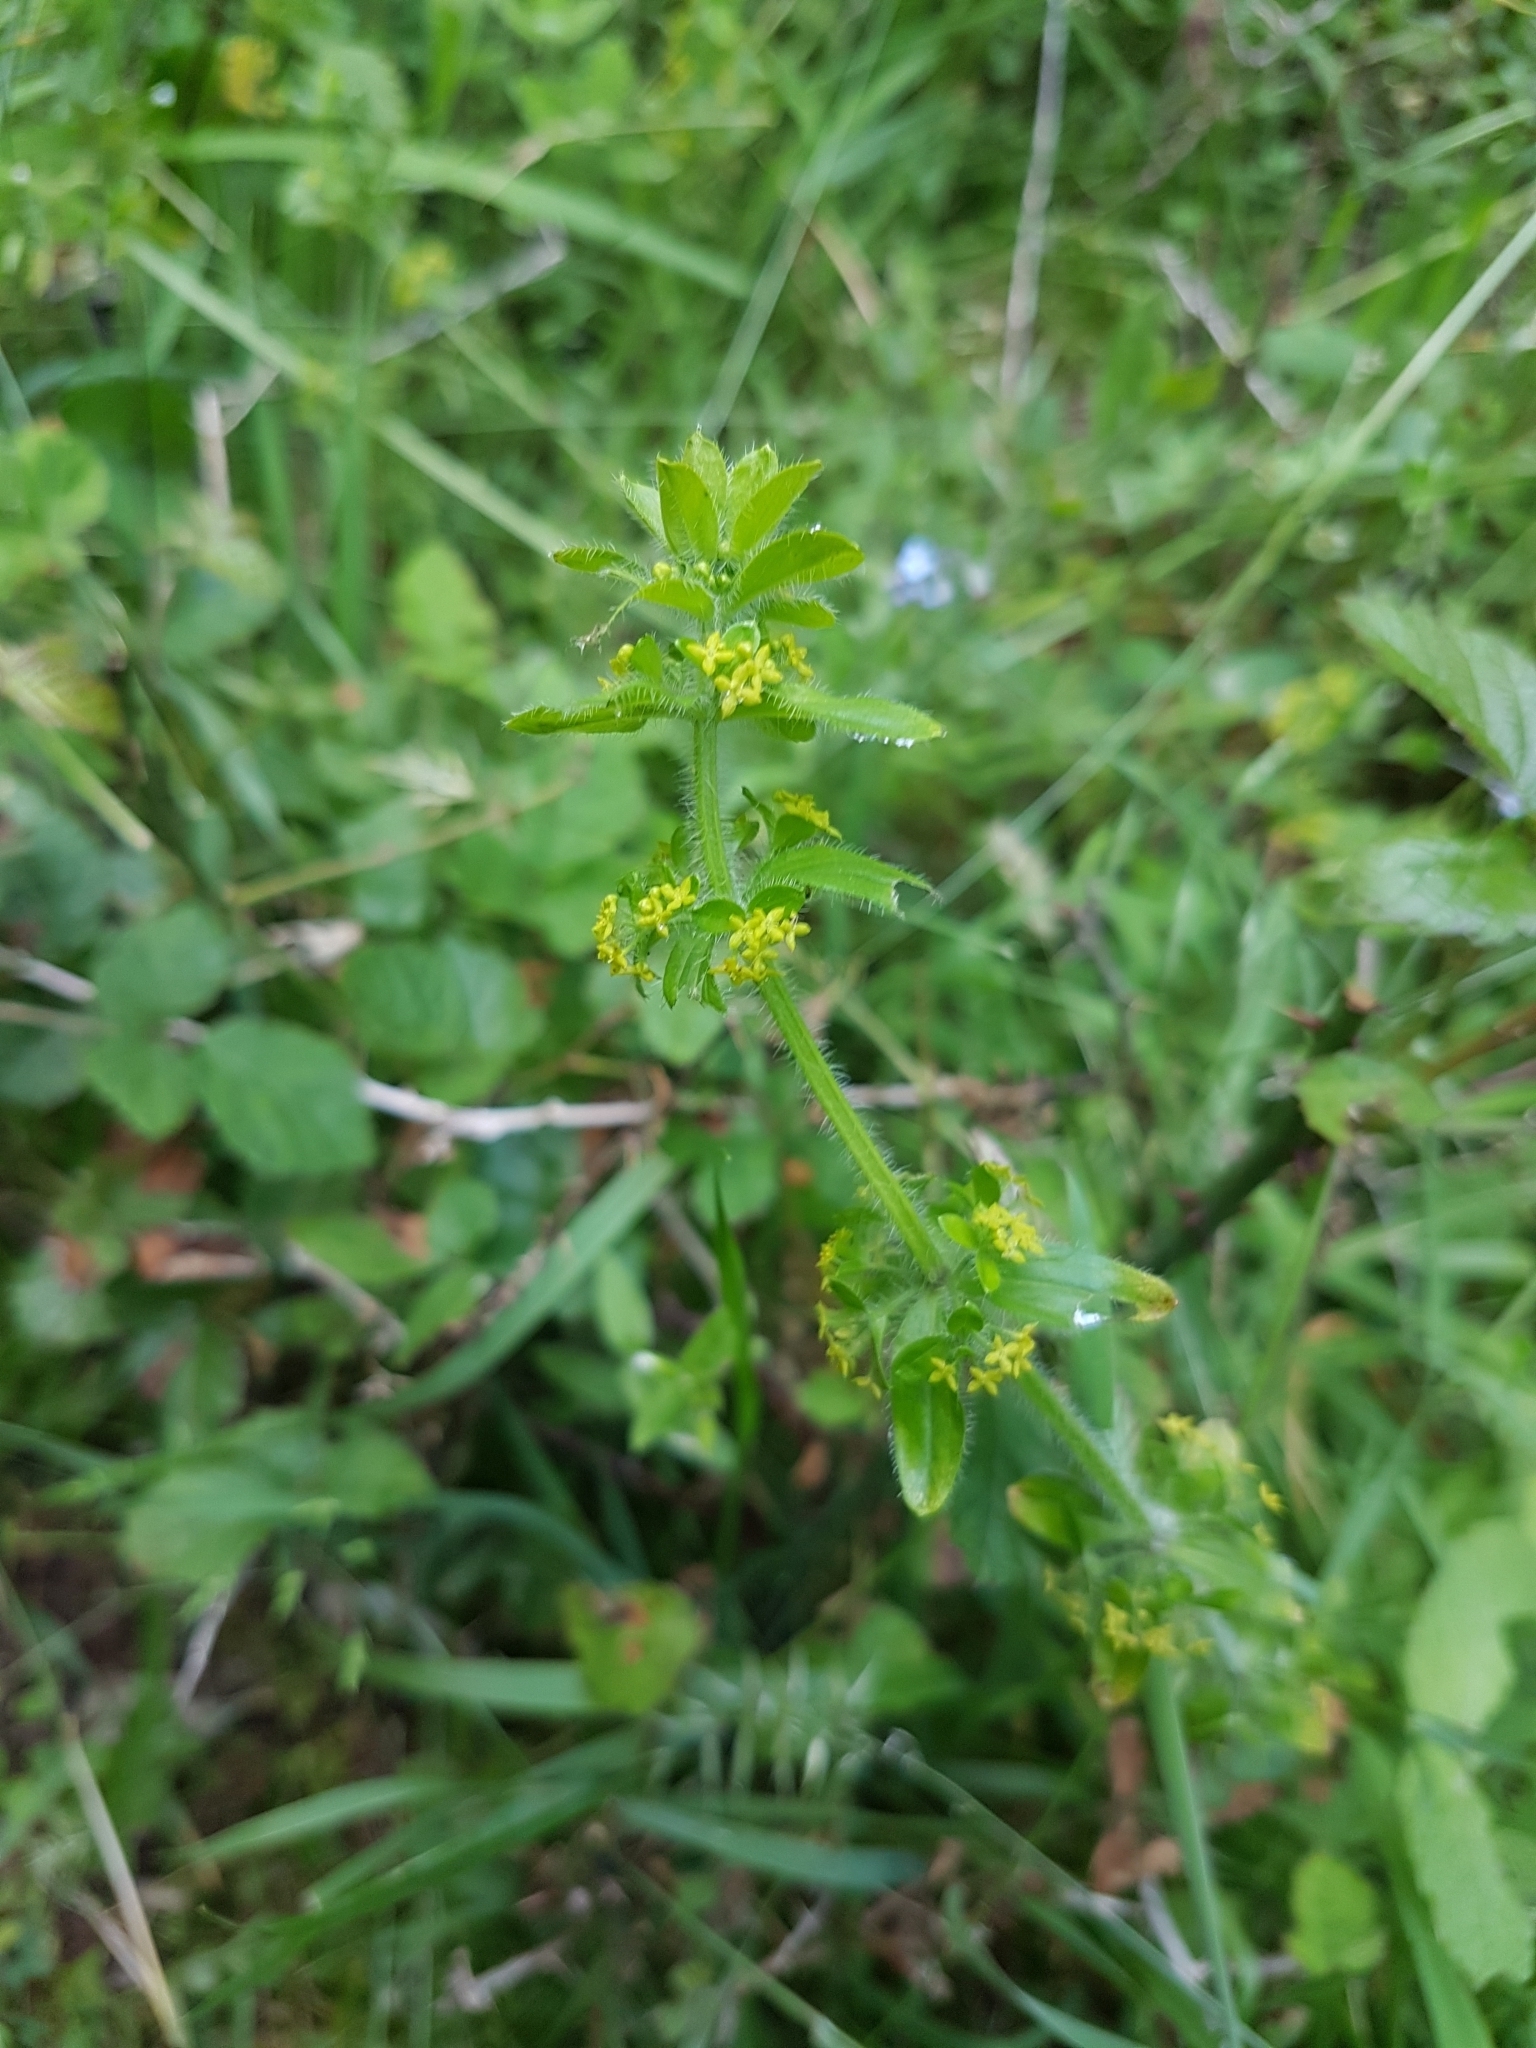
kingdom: Plantae
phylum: Tracheophyta
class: Magnoliopsida
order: Gentianales
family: Rubiaceae
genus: Galium
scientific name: Galium verum
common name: Lady's bedstraw
